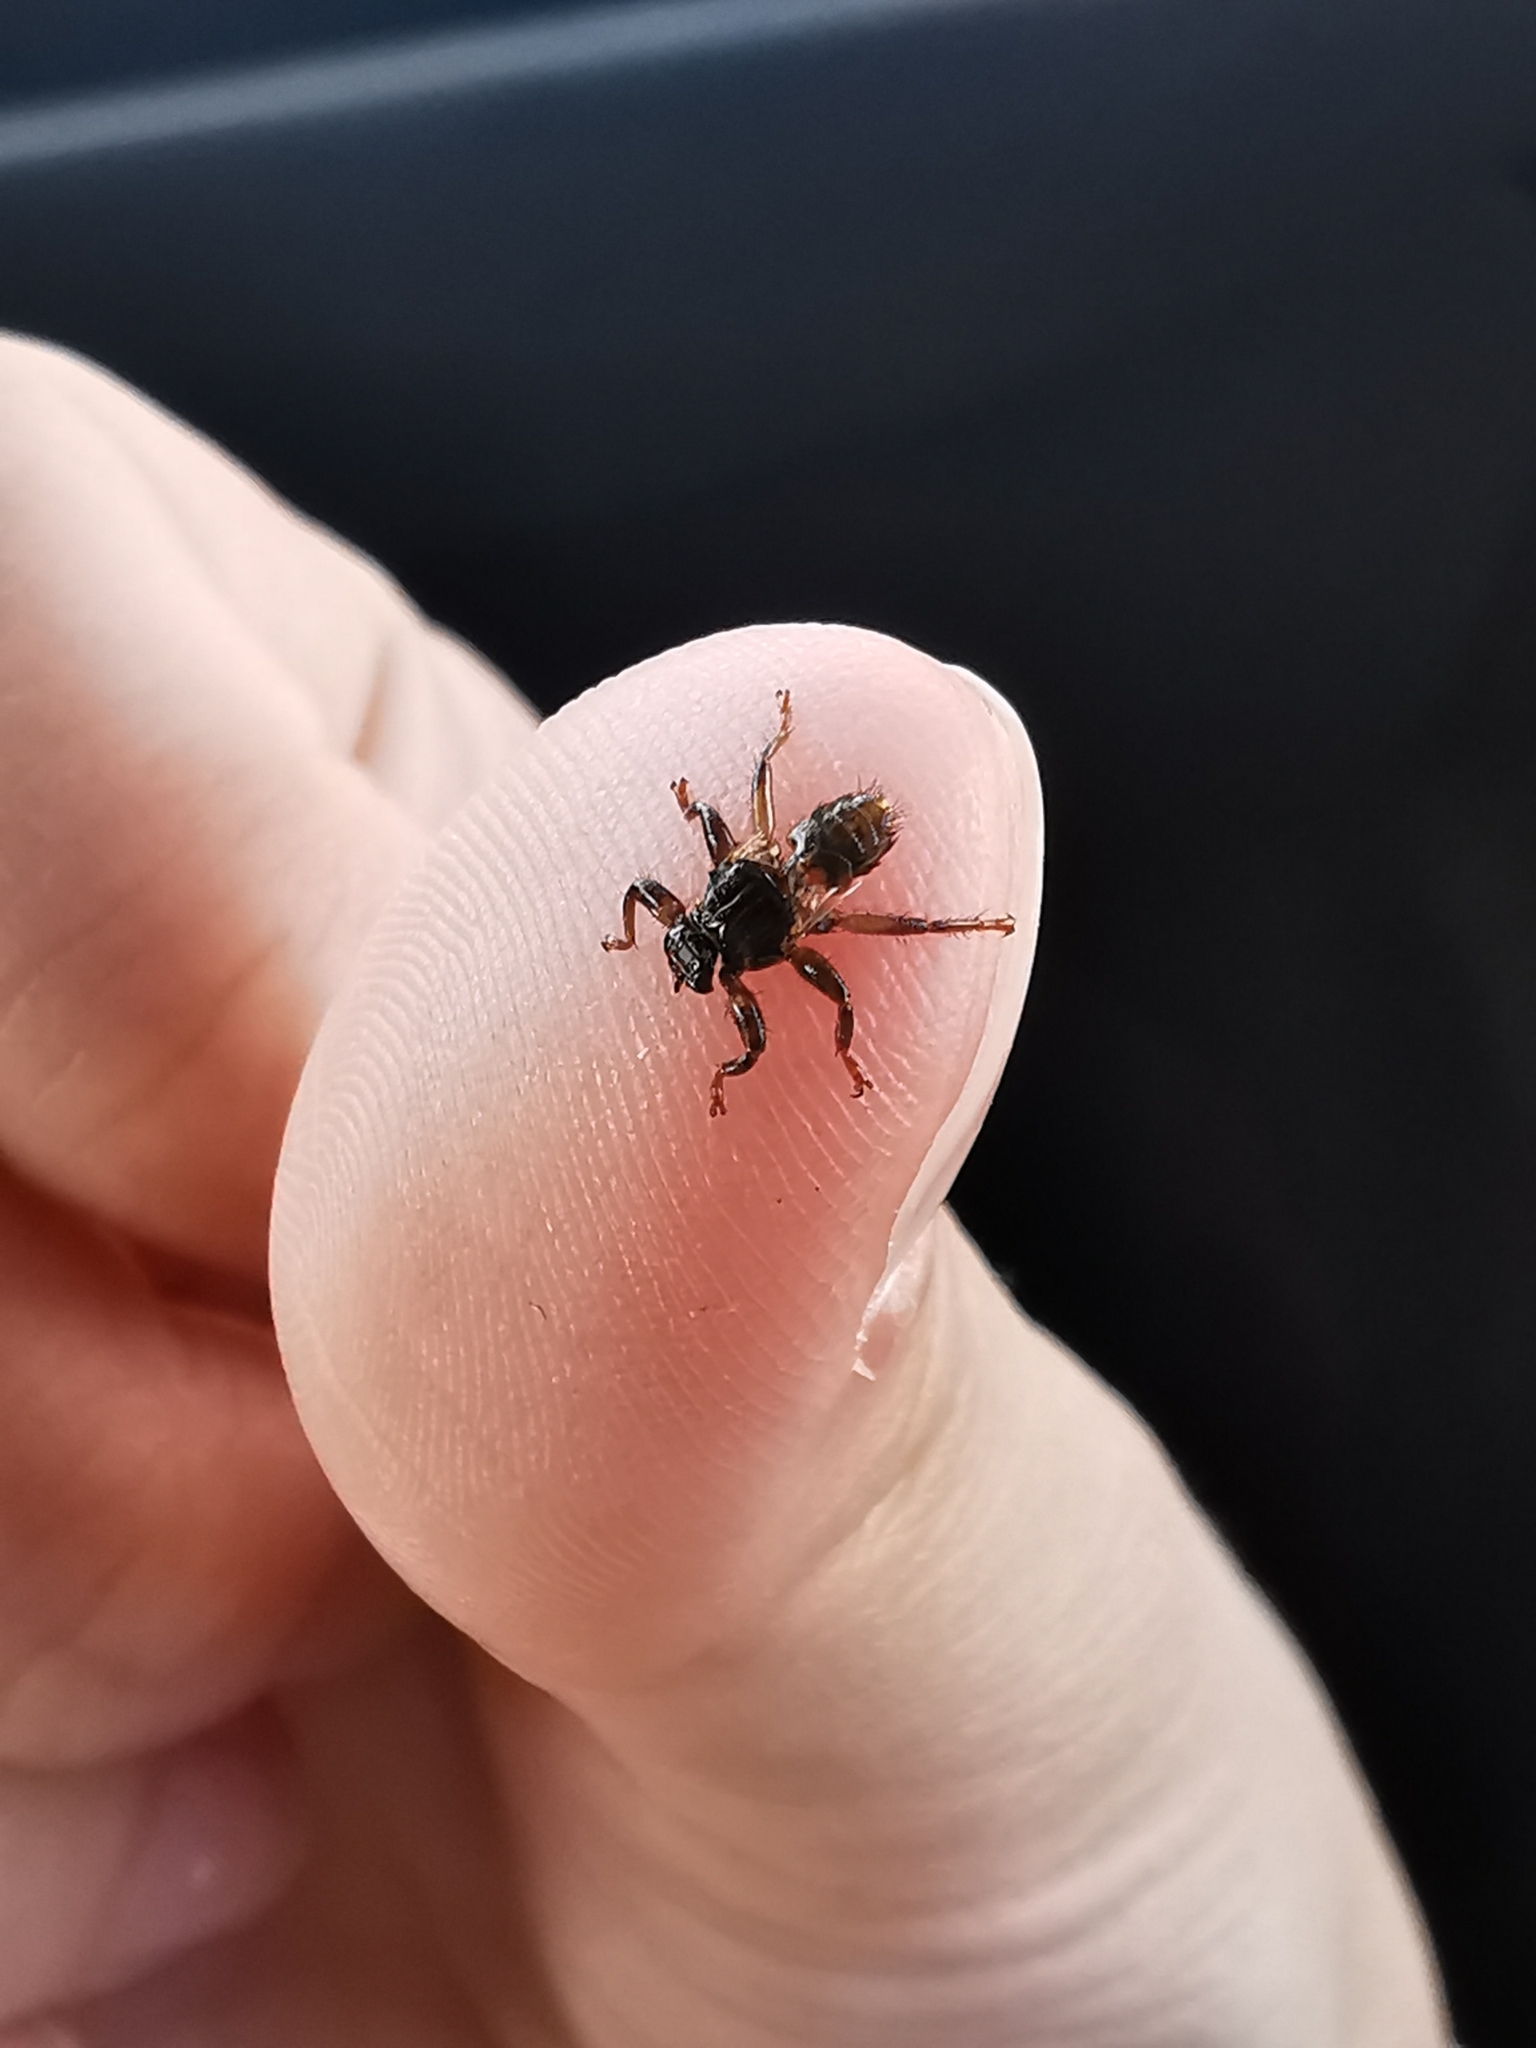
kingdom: Animalia
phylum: Arthropoda
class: Insecta
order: Diptera
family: Hippoboscidae
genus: Lipoptena
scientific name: Lipoptena cervi
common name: Deer ked
